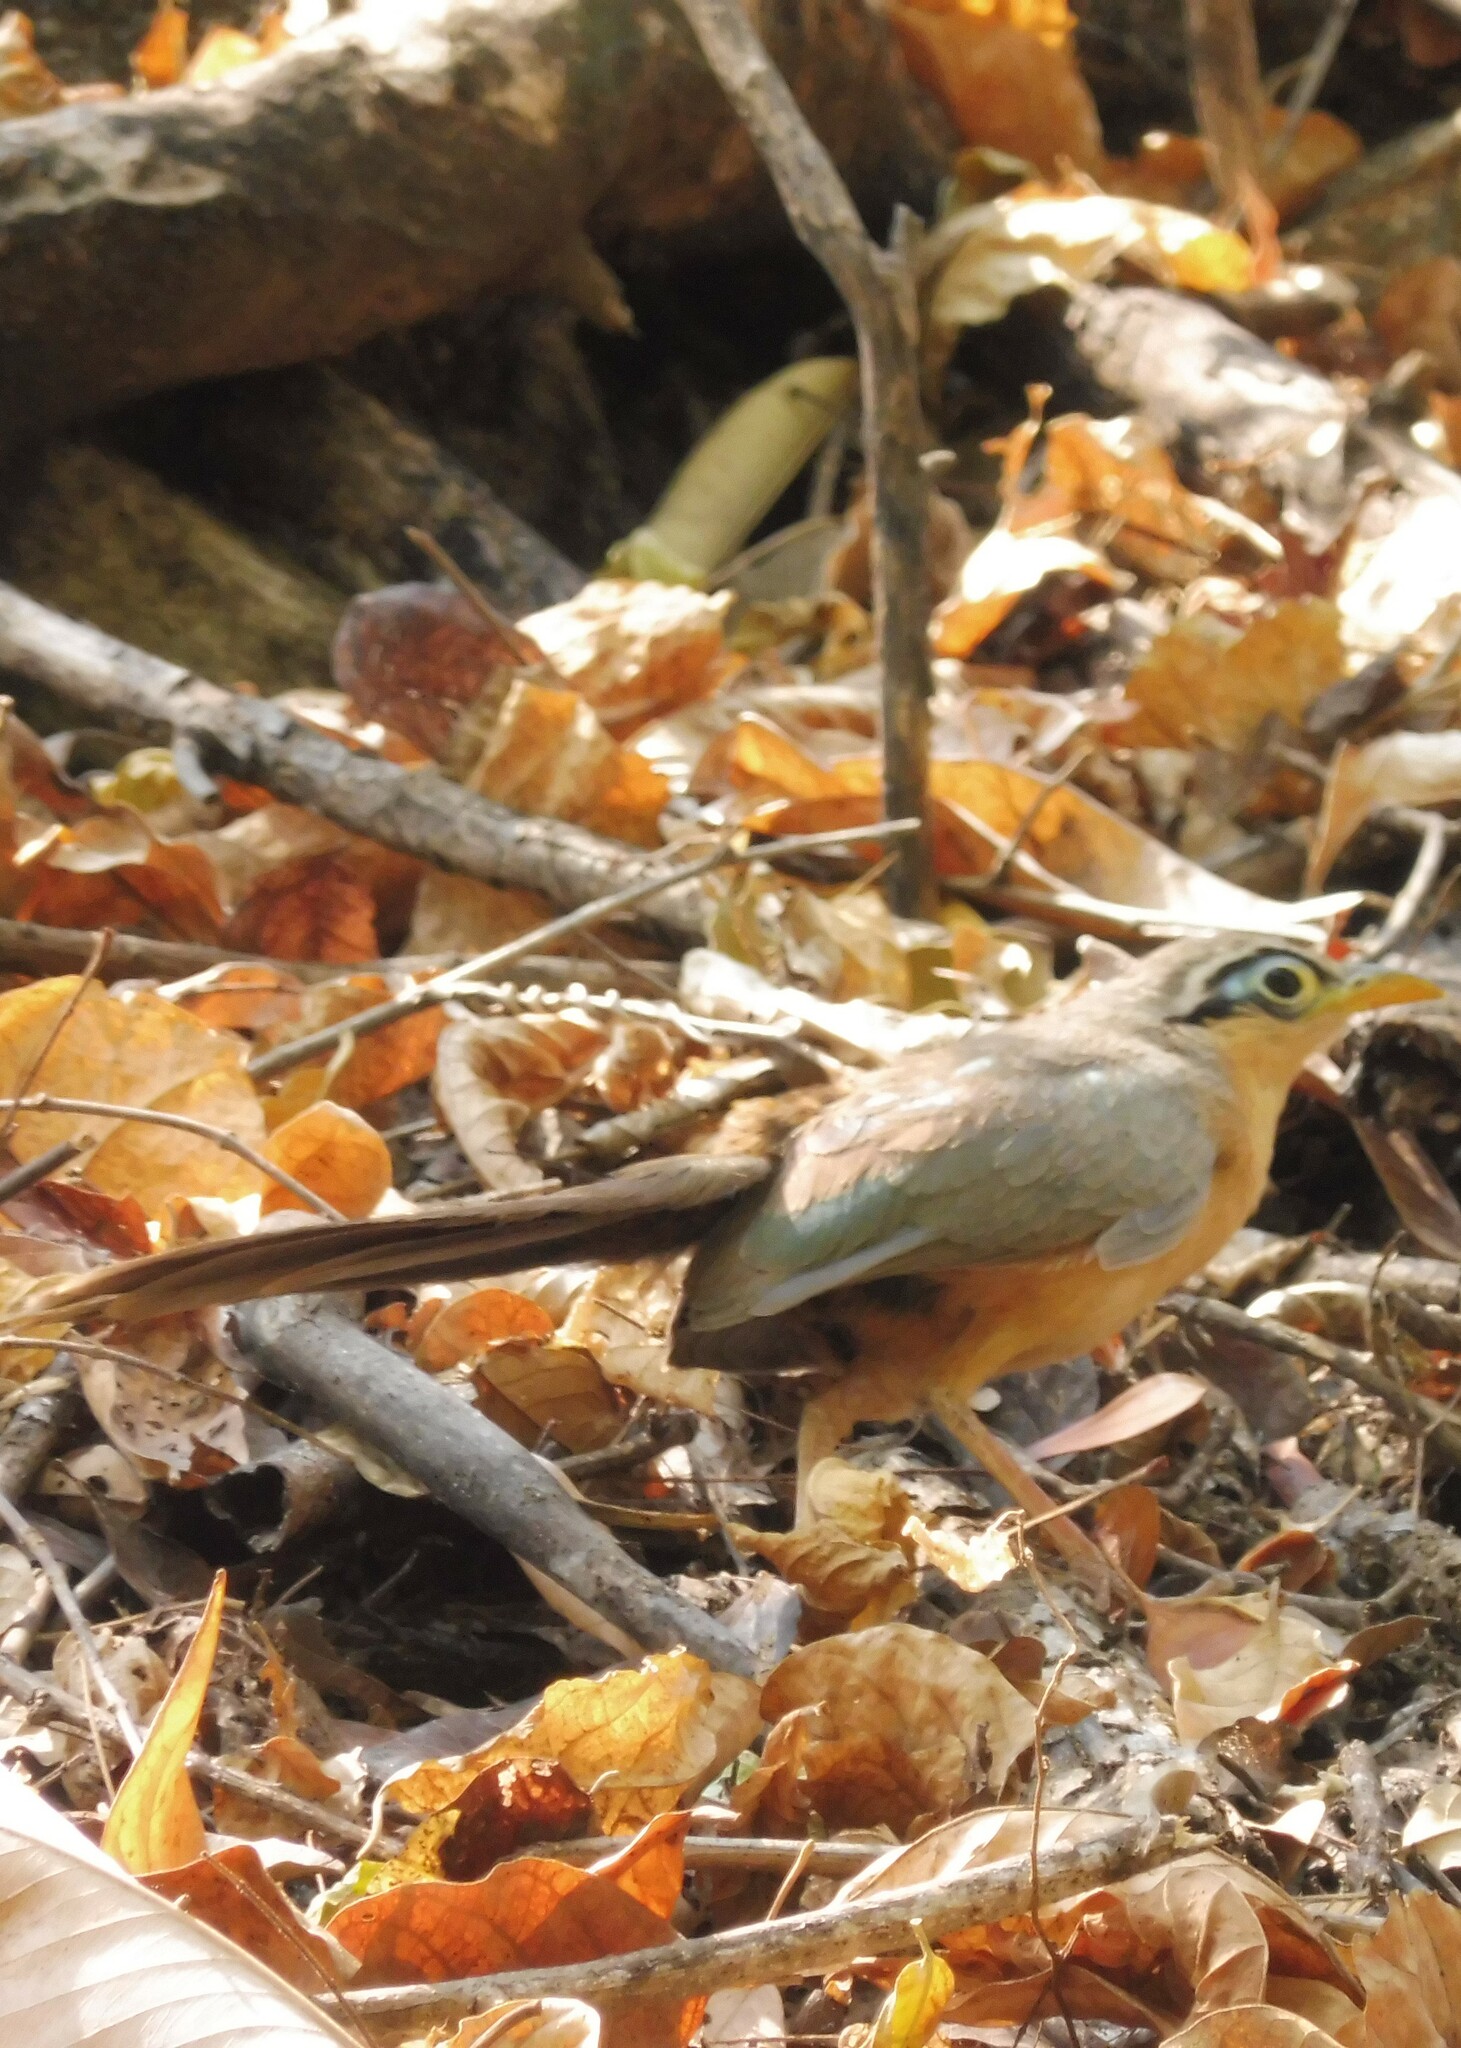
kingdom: Animalia
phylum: Chordata
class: Aves
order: Cuculiformes
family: Cuculidae
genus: Morococcyx
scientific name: Morococcyx erythropygus
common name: Lesser ground-cuckoo
